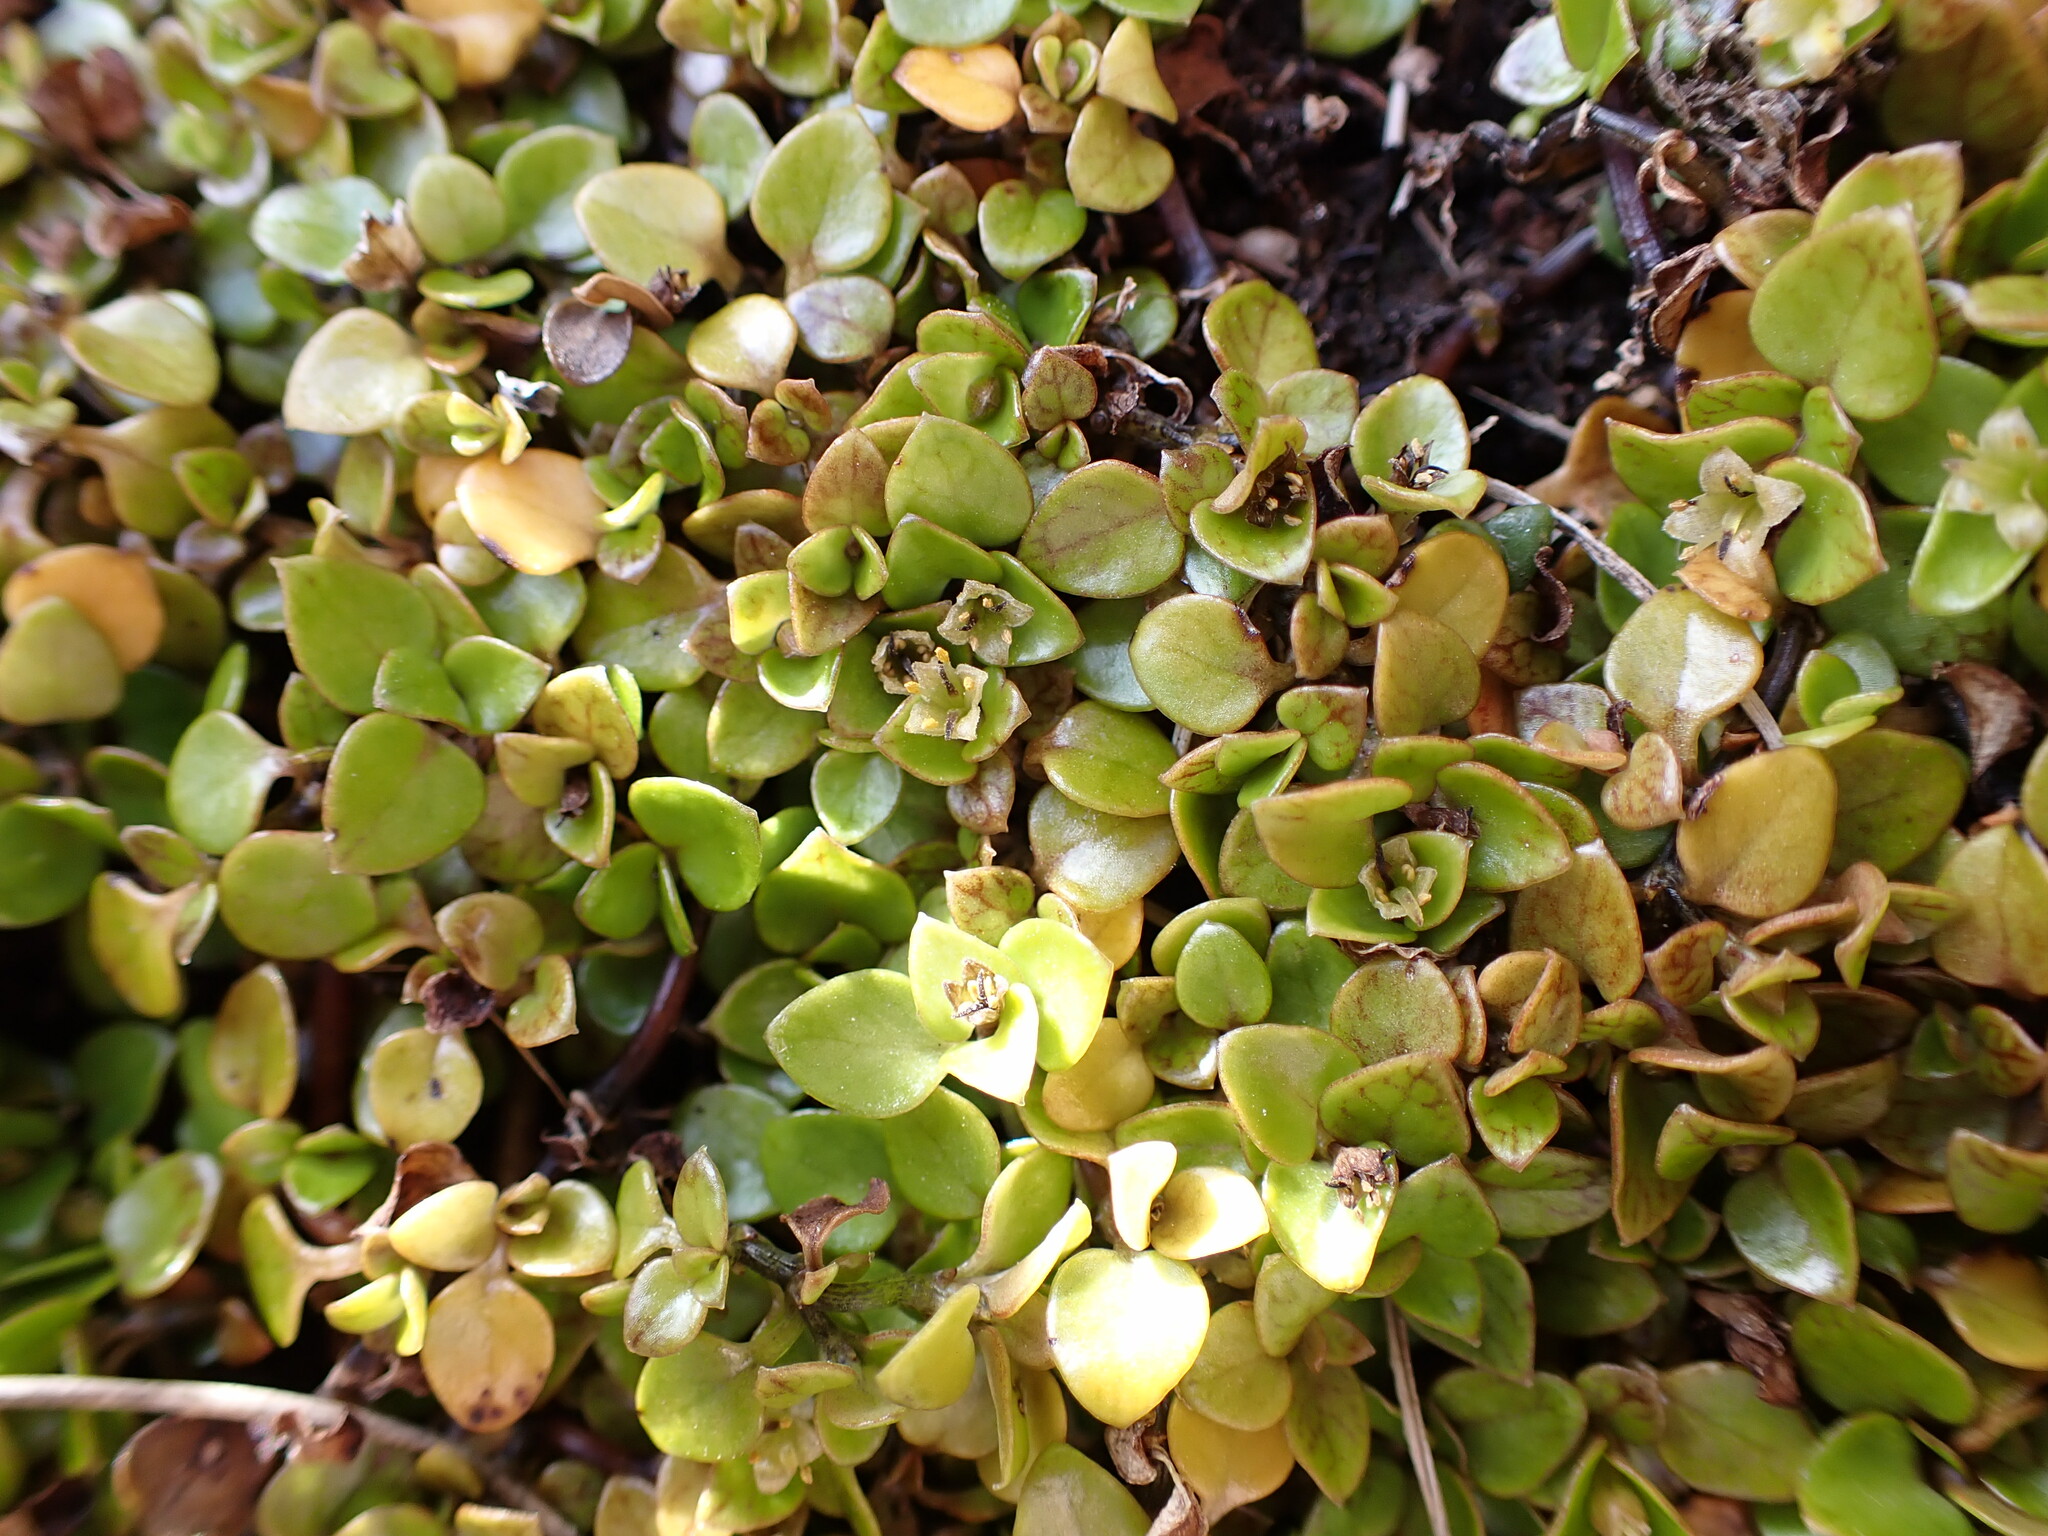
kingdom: Plantae
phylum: Tracheophyta
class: Magnoliopsida
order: Gentianales
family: Rubiaceae
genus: Nertera
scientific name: Nertera granadensis
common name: Beadplant
